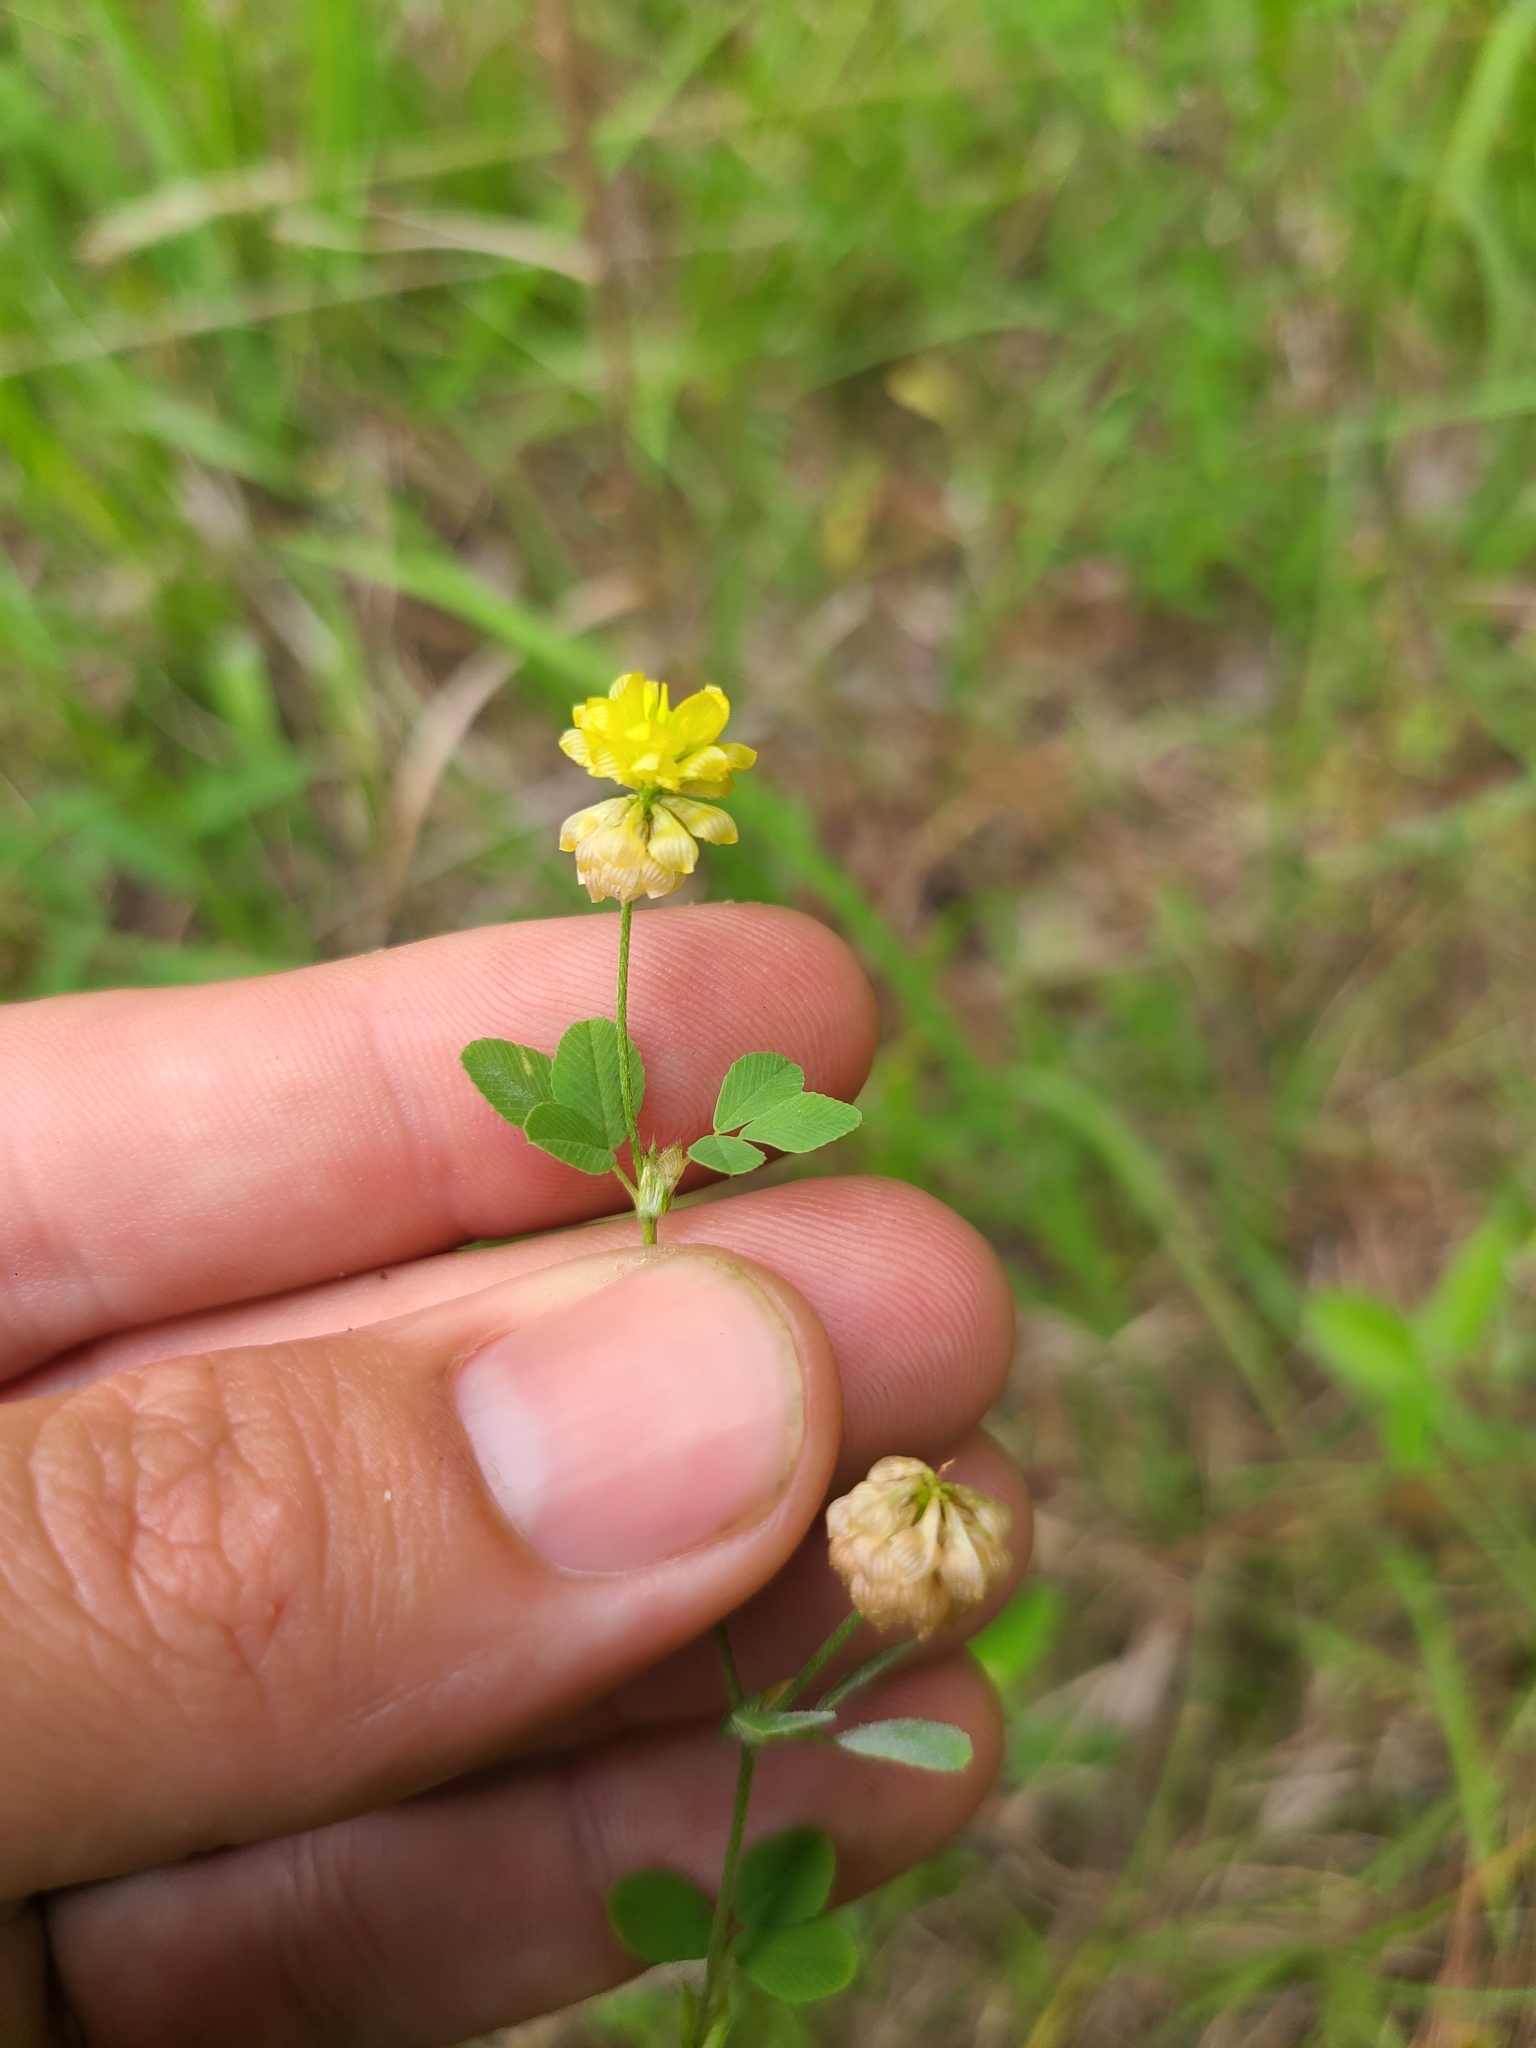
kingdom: Plantae
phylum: Tracheophyta
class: Magnoliopsida
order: Fabales
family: Fabaceae
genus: Trifolium
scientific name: Trifolium campestre
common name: Field clover
